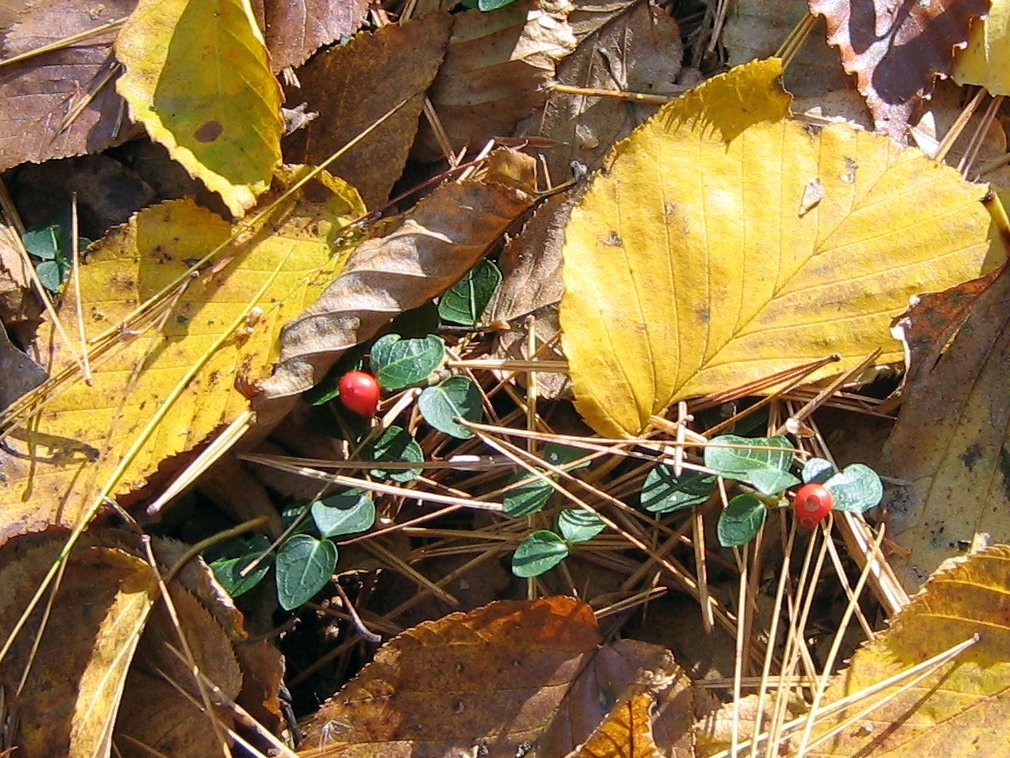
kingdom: Plantae
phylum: Tracheophyta
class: Magnoliopsida
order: Gentianales
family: Rubiaceae
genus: Mitchella
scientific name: Mitchella repens
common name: Partridge-berry
